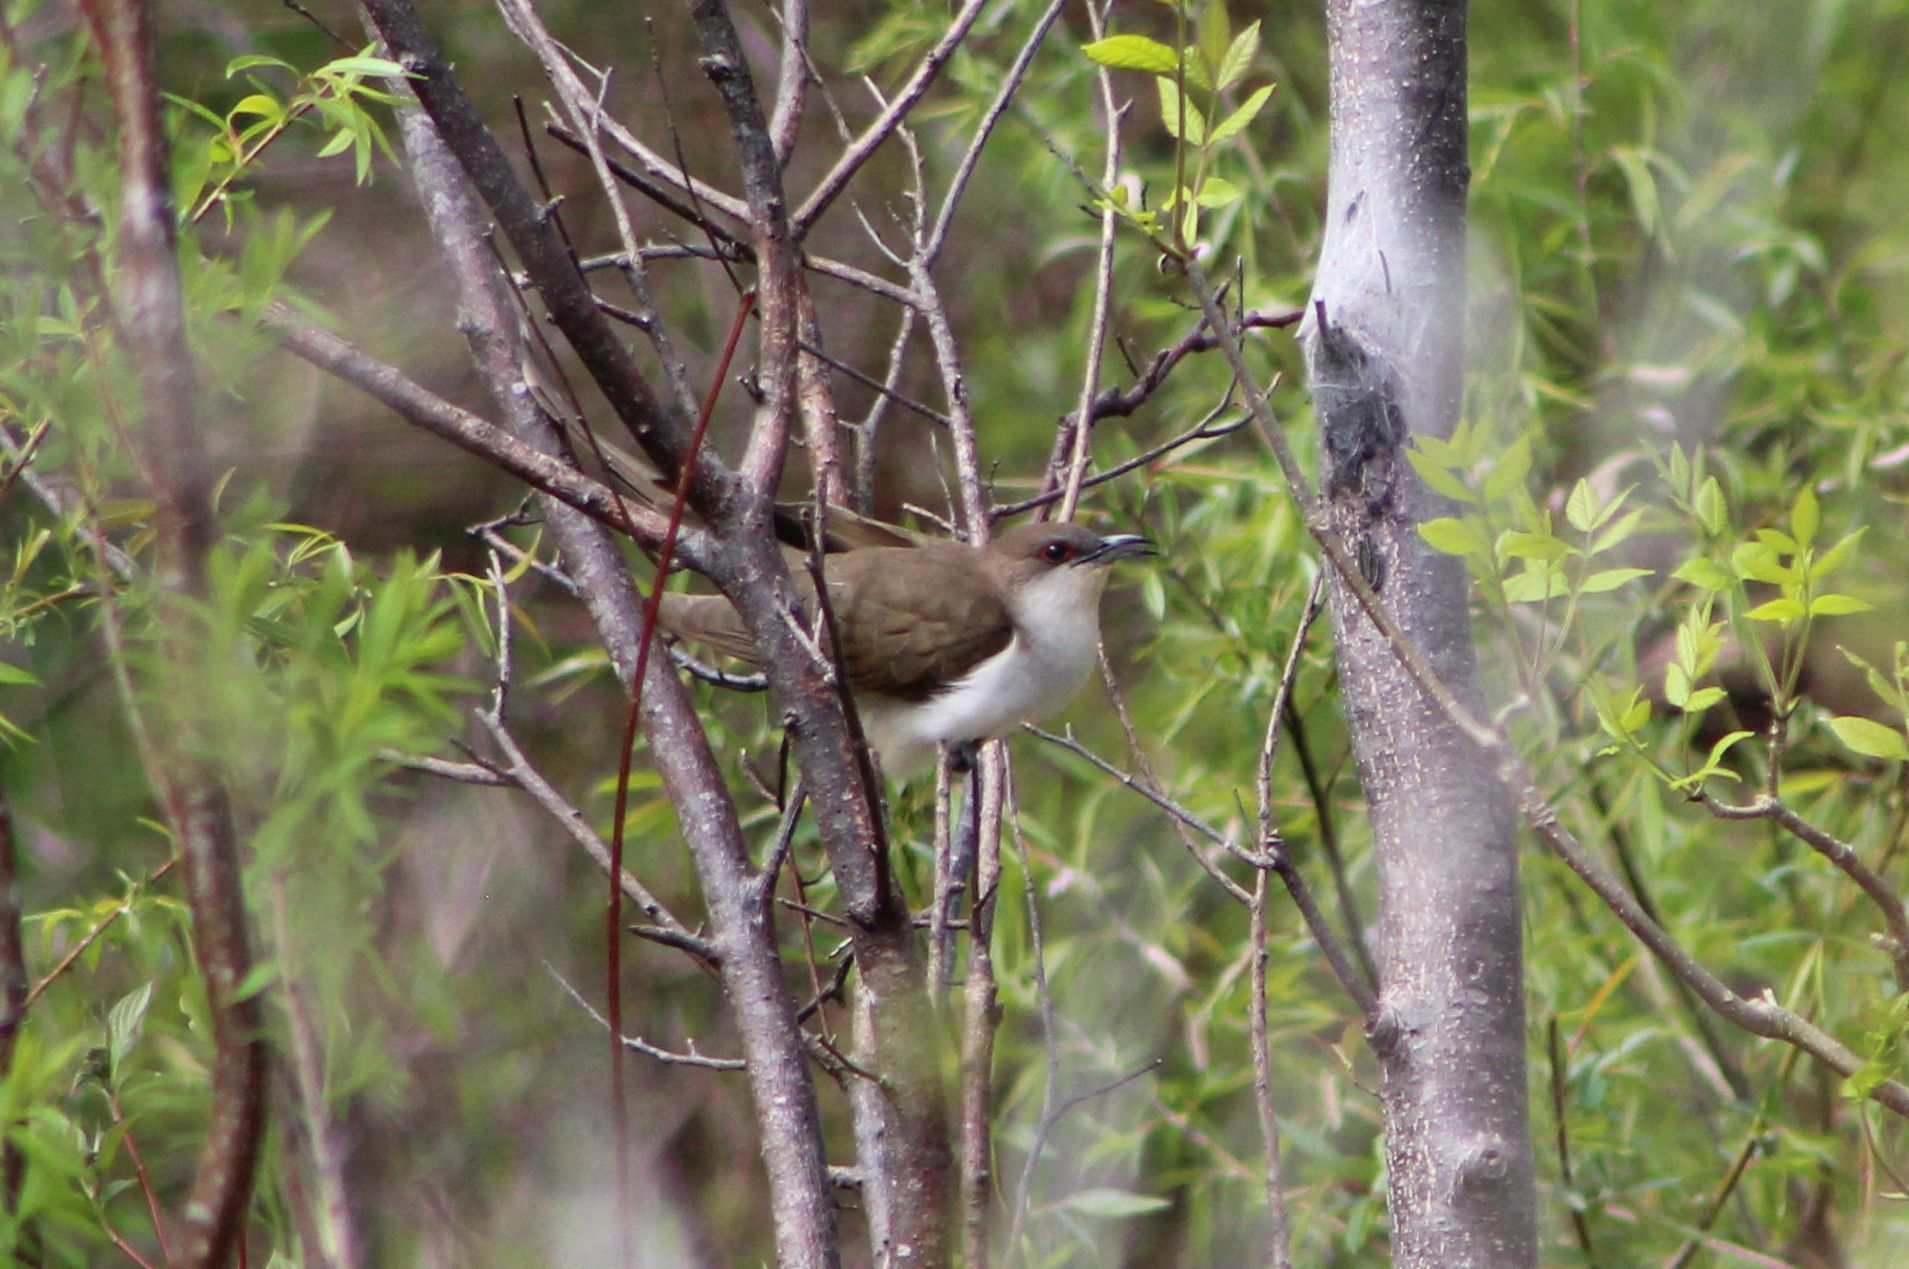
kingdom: Animalia
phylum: Chordata
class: Aves
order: Cuculiformes
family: Cuculidae
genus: Coccyzus
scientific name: Coccyzus erythropthalmus
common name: Black-billed cuckoo
